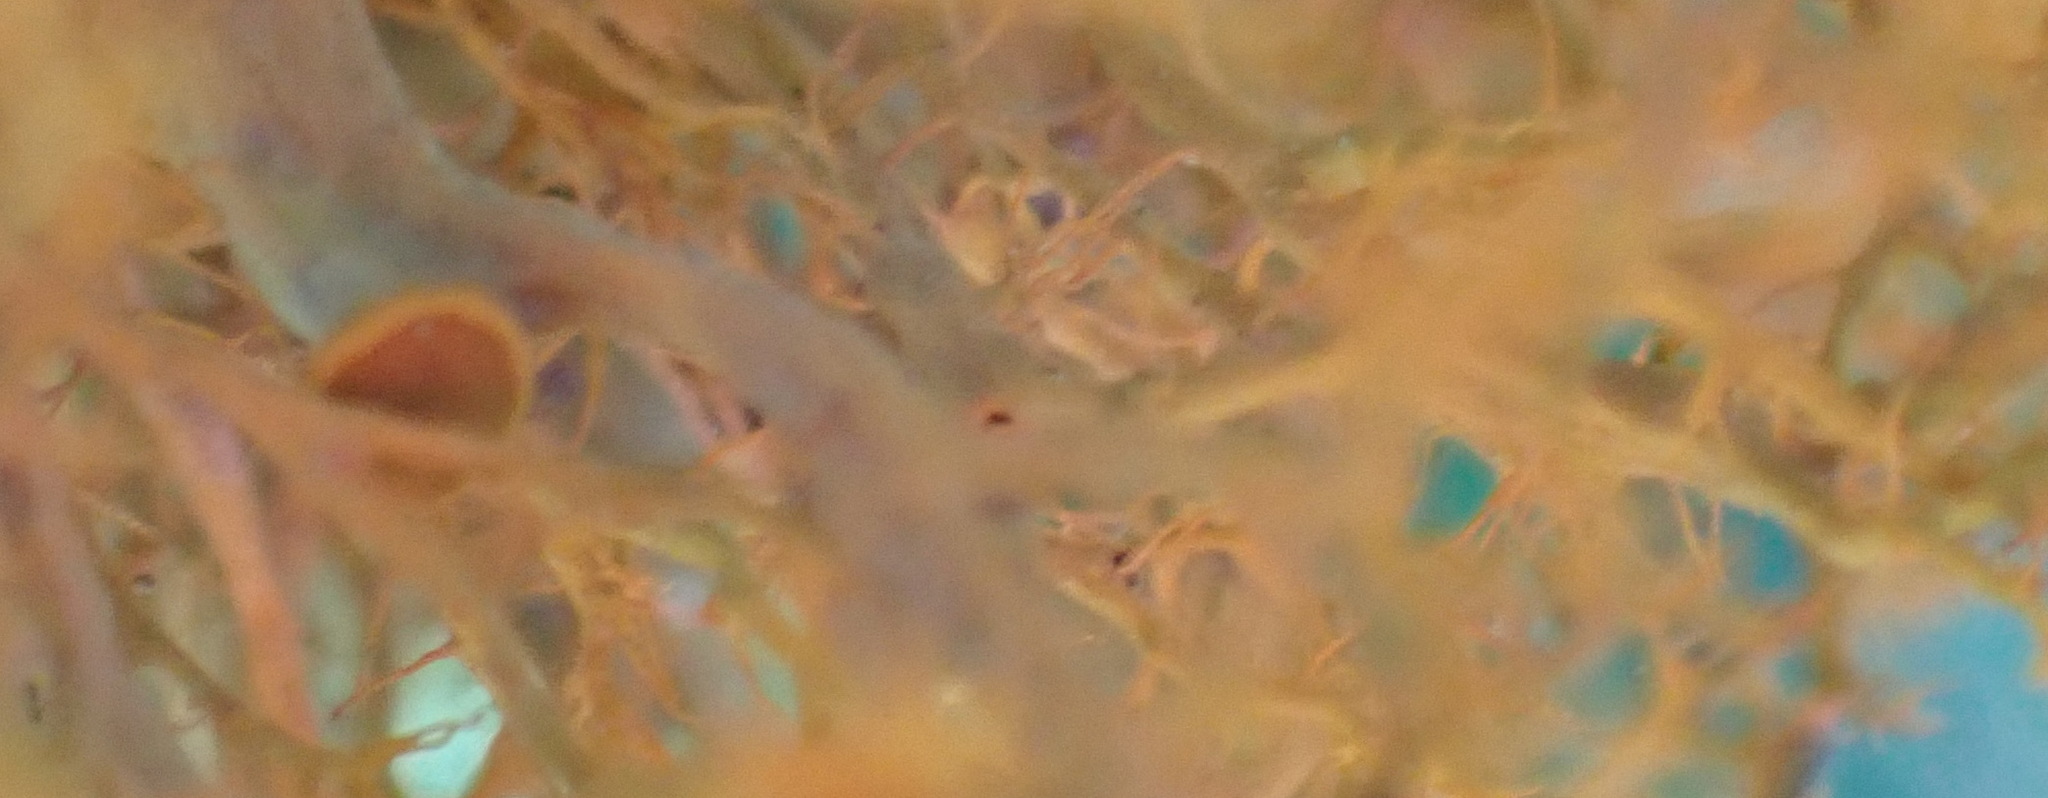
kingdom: Fungi
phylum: Ascomycota
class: Lecanoromycetes
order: Teloschistales
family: Teloschistaceae
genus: Teloschistes
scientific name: Teloschistes inflatus
